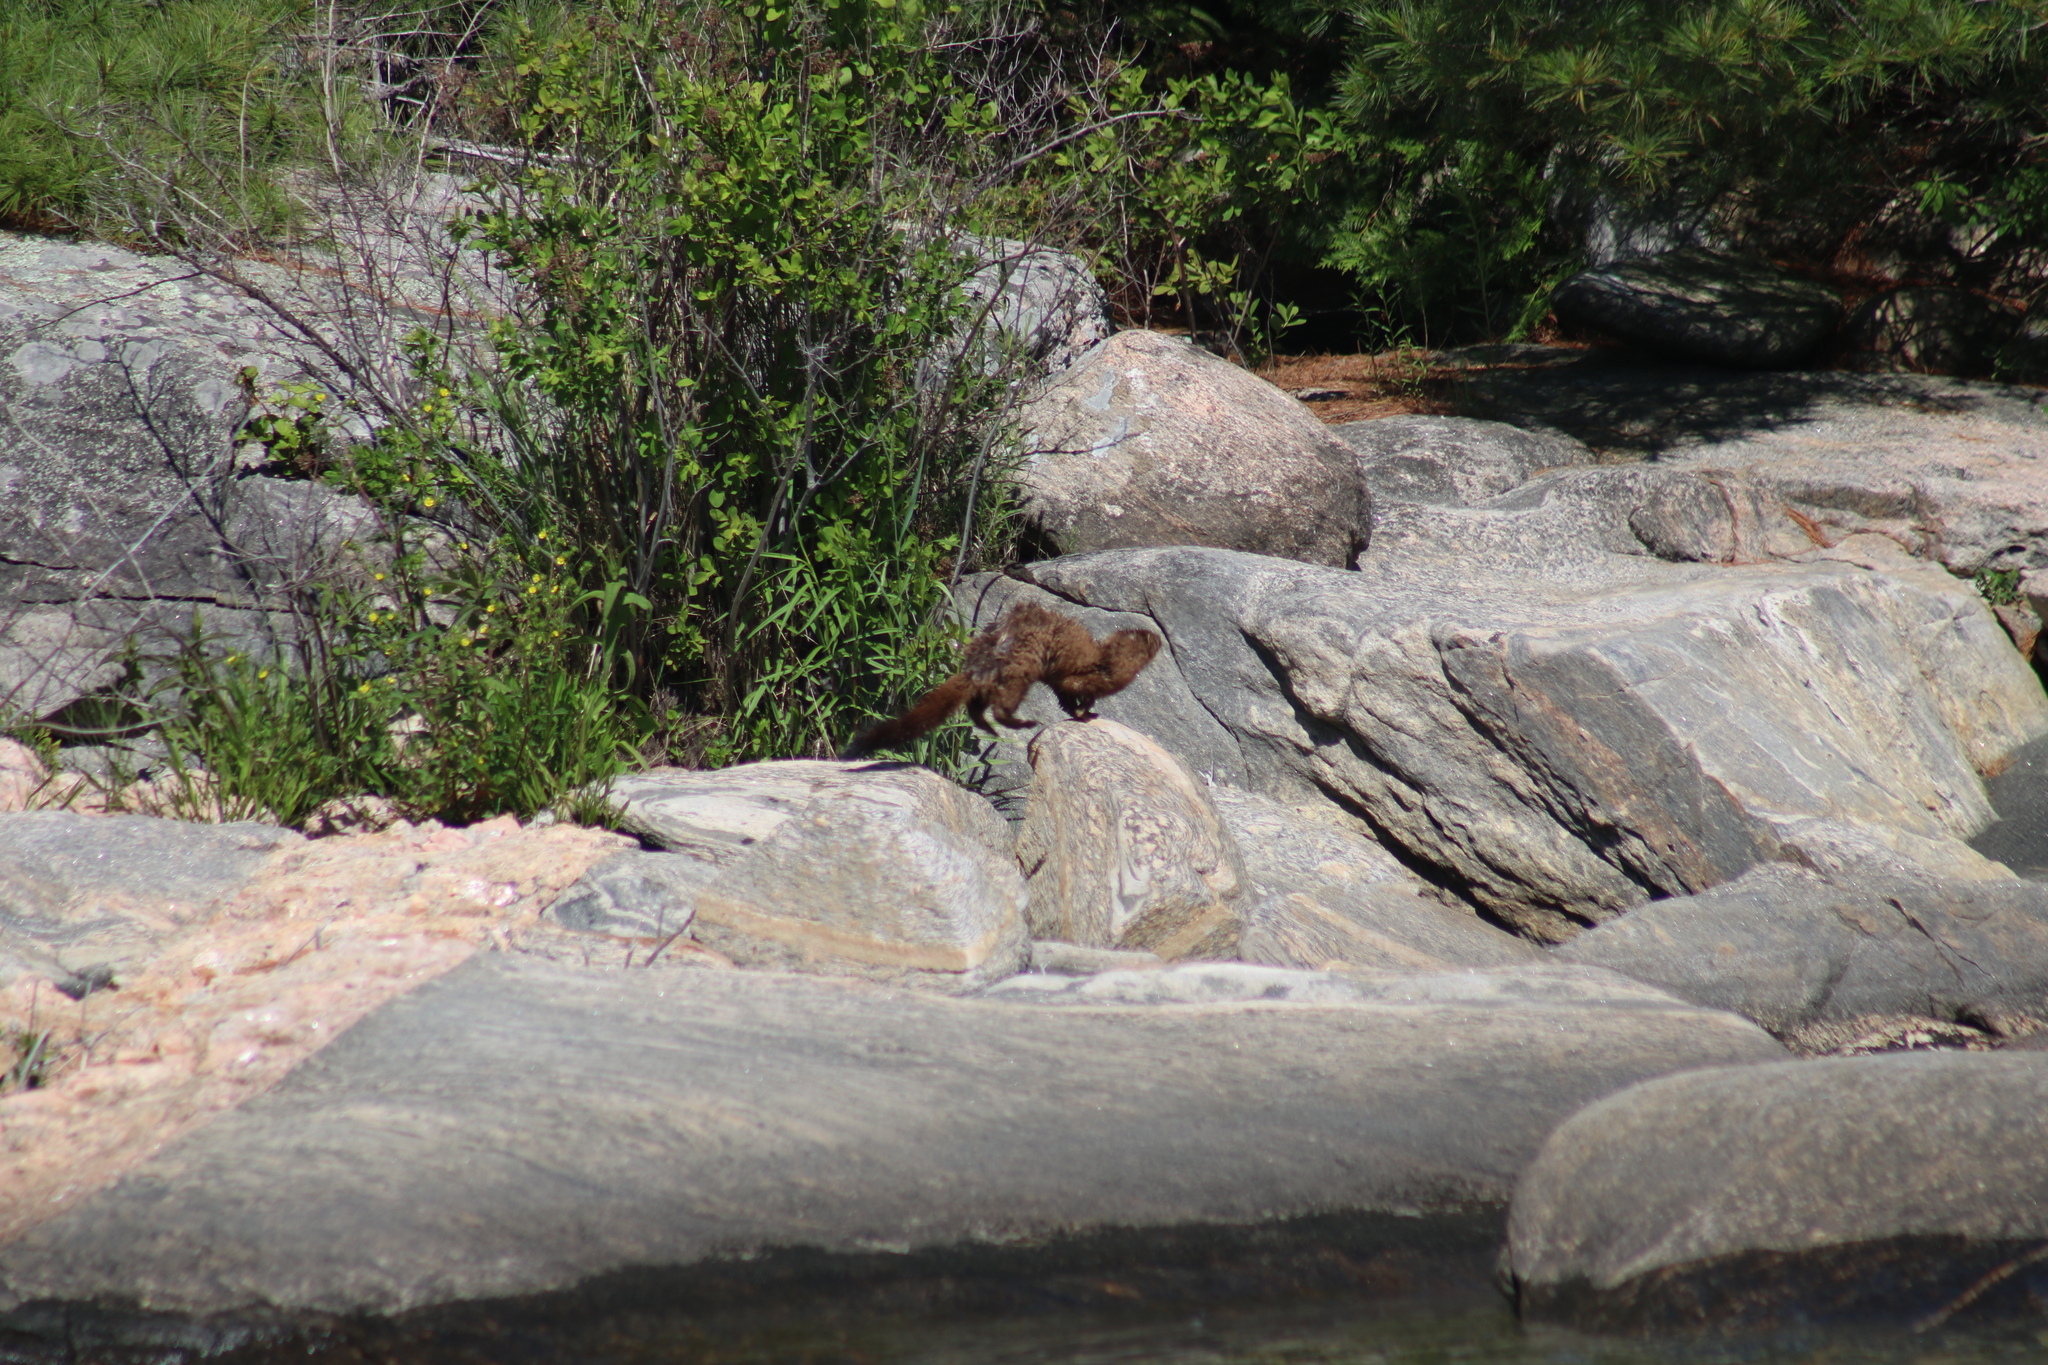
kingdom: Animalia
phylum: Chordata
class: Mammalia
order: Carnivora
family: Mustelidae
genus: Mustela
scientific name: Mustela
